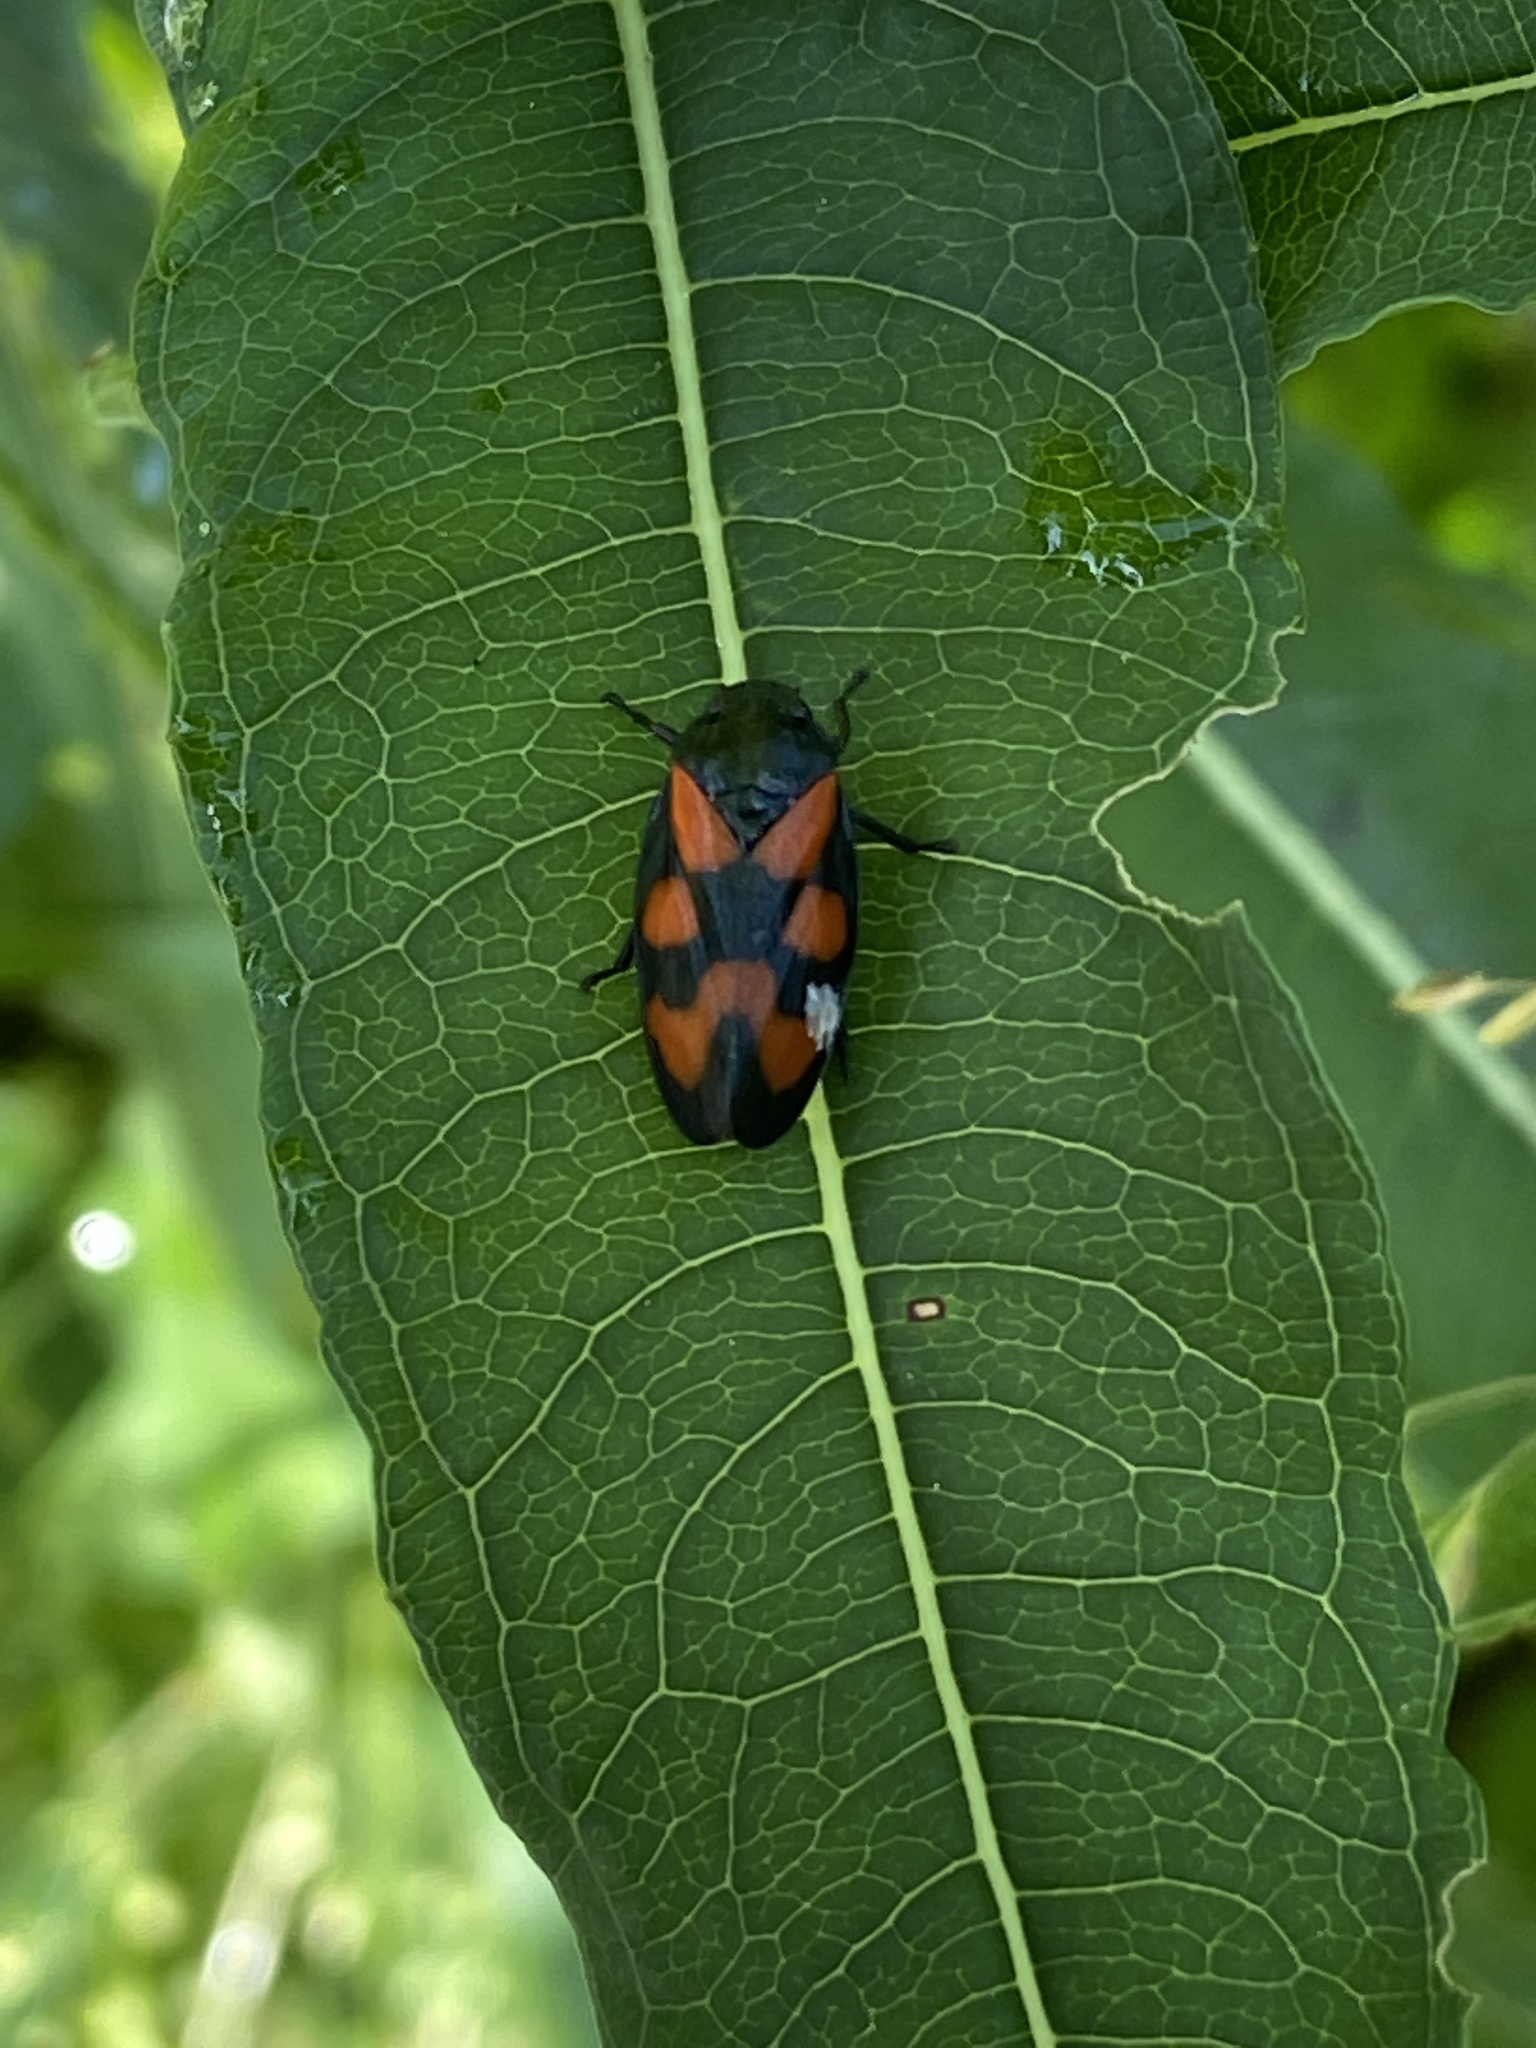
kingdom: Animalia
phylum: Arthropoda
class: Insecta
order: Hemiptera
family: Cercopidae
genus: Cercopis
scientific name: Cercopis vulnerata
